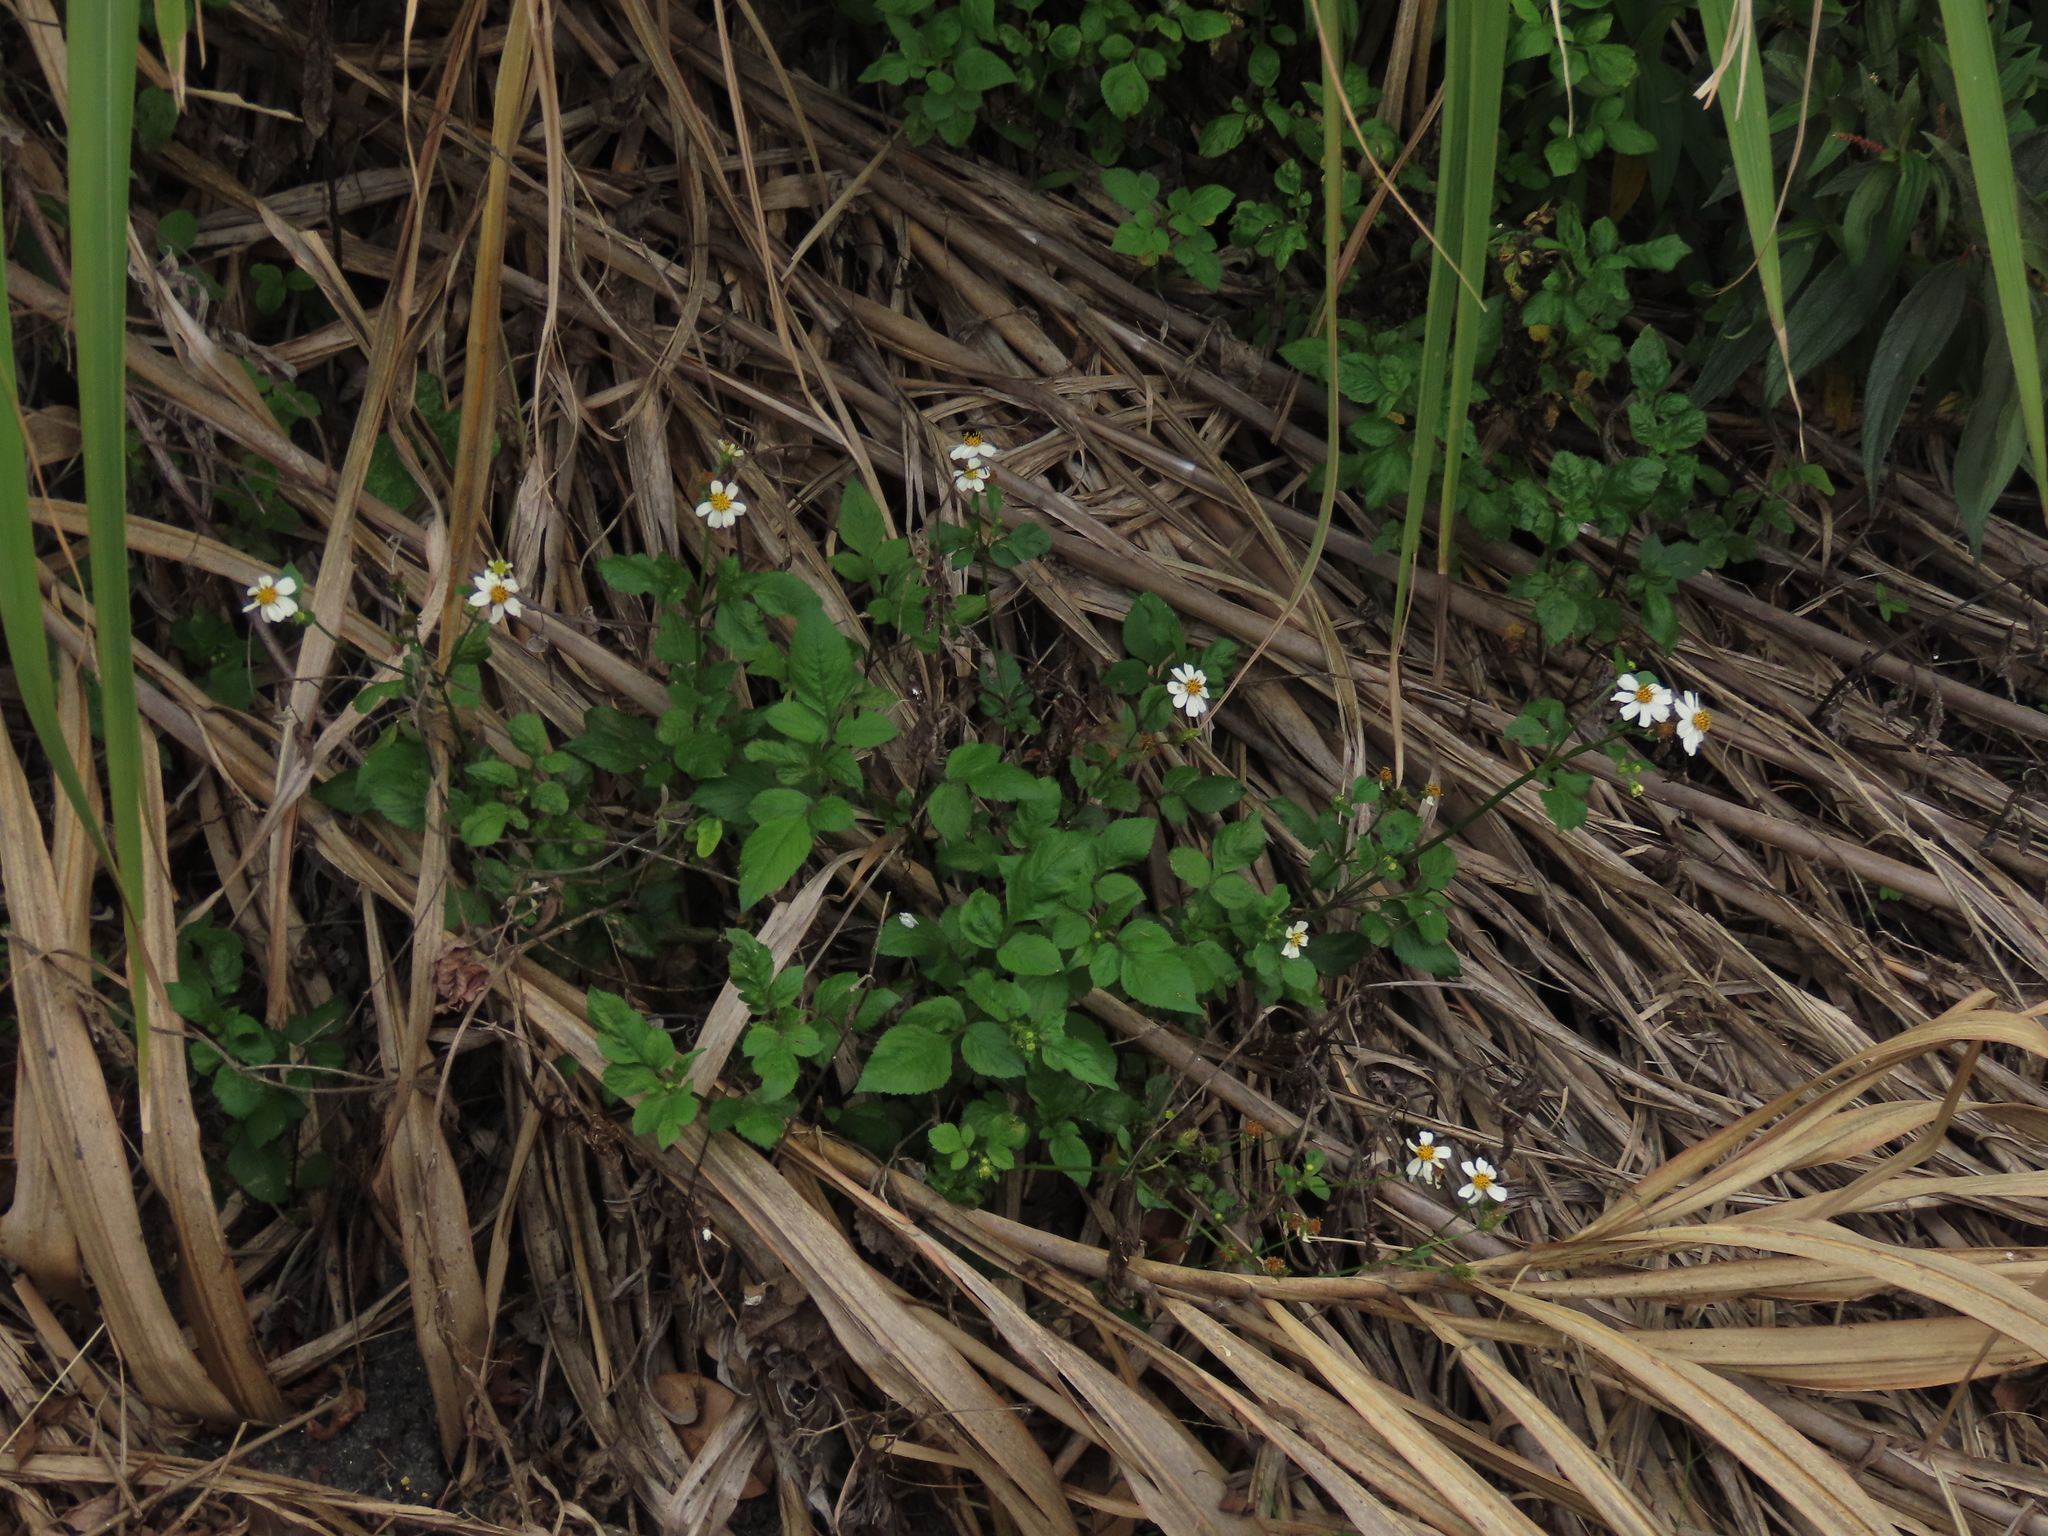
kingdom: Plantae
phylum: Tracheophyta
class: Magnoliopsida
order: Asterales
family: Asteraceae
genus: Bidens
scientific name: Bidens alba
